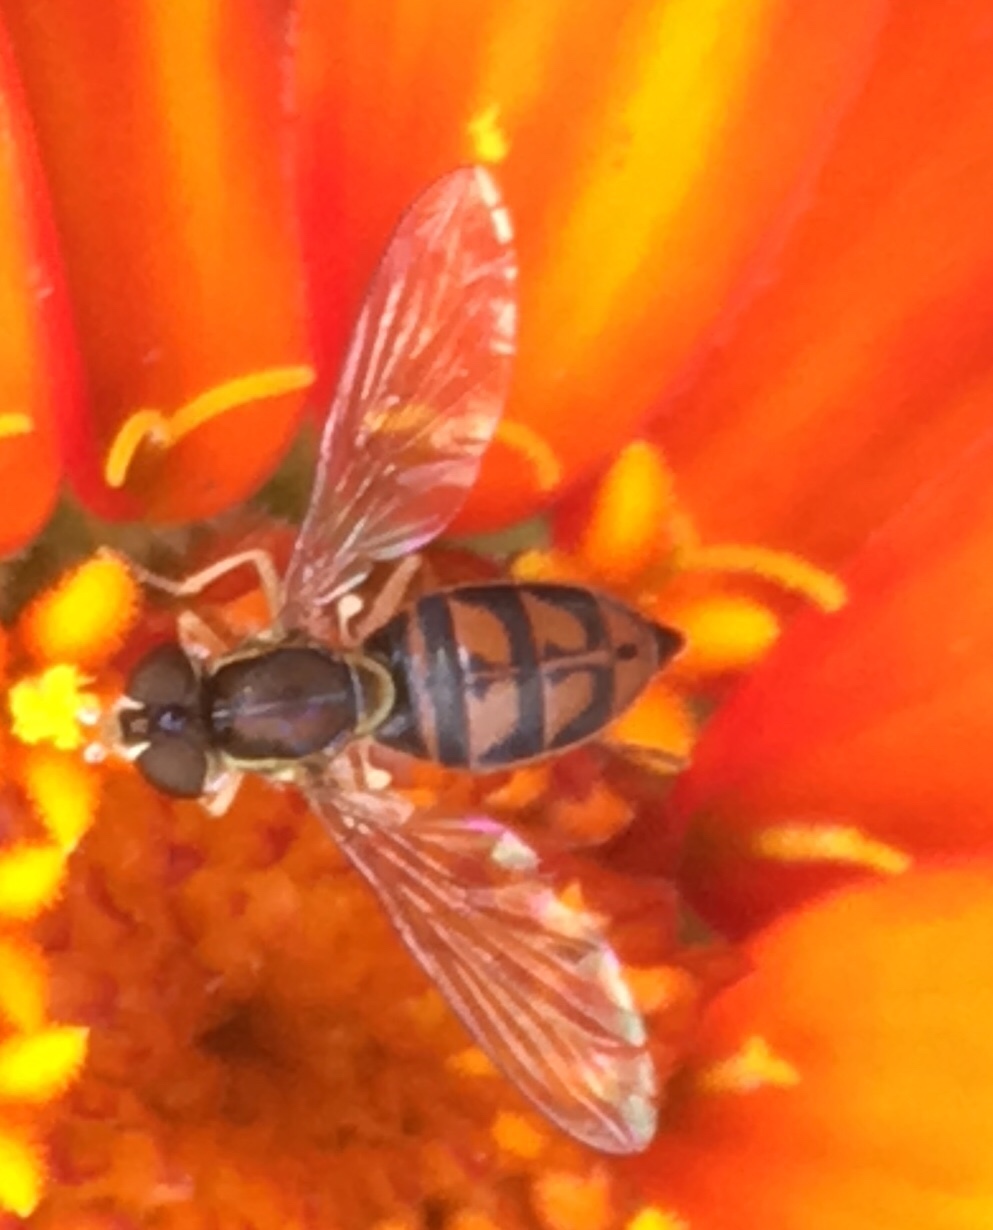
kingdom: Animalia
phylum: Arthropoda
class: Insecta
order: Diptera
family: Syrphidae
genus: Toxomerus
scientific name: Toxomerus marginatus
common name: Syrphid fly
